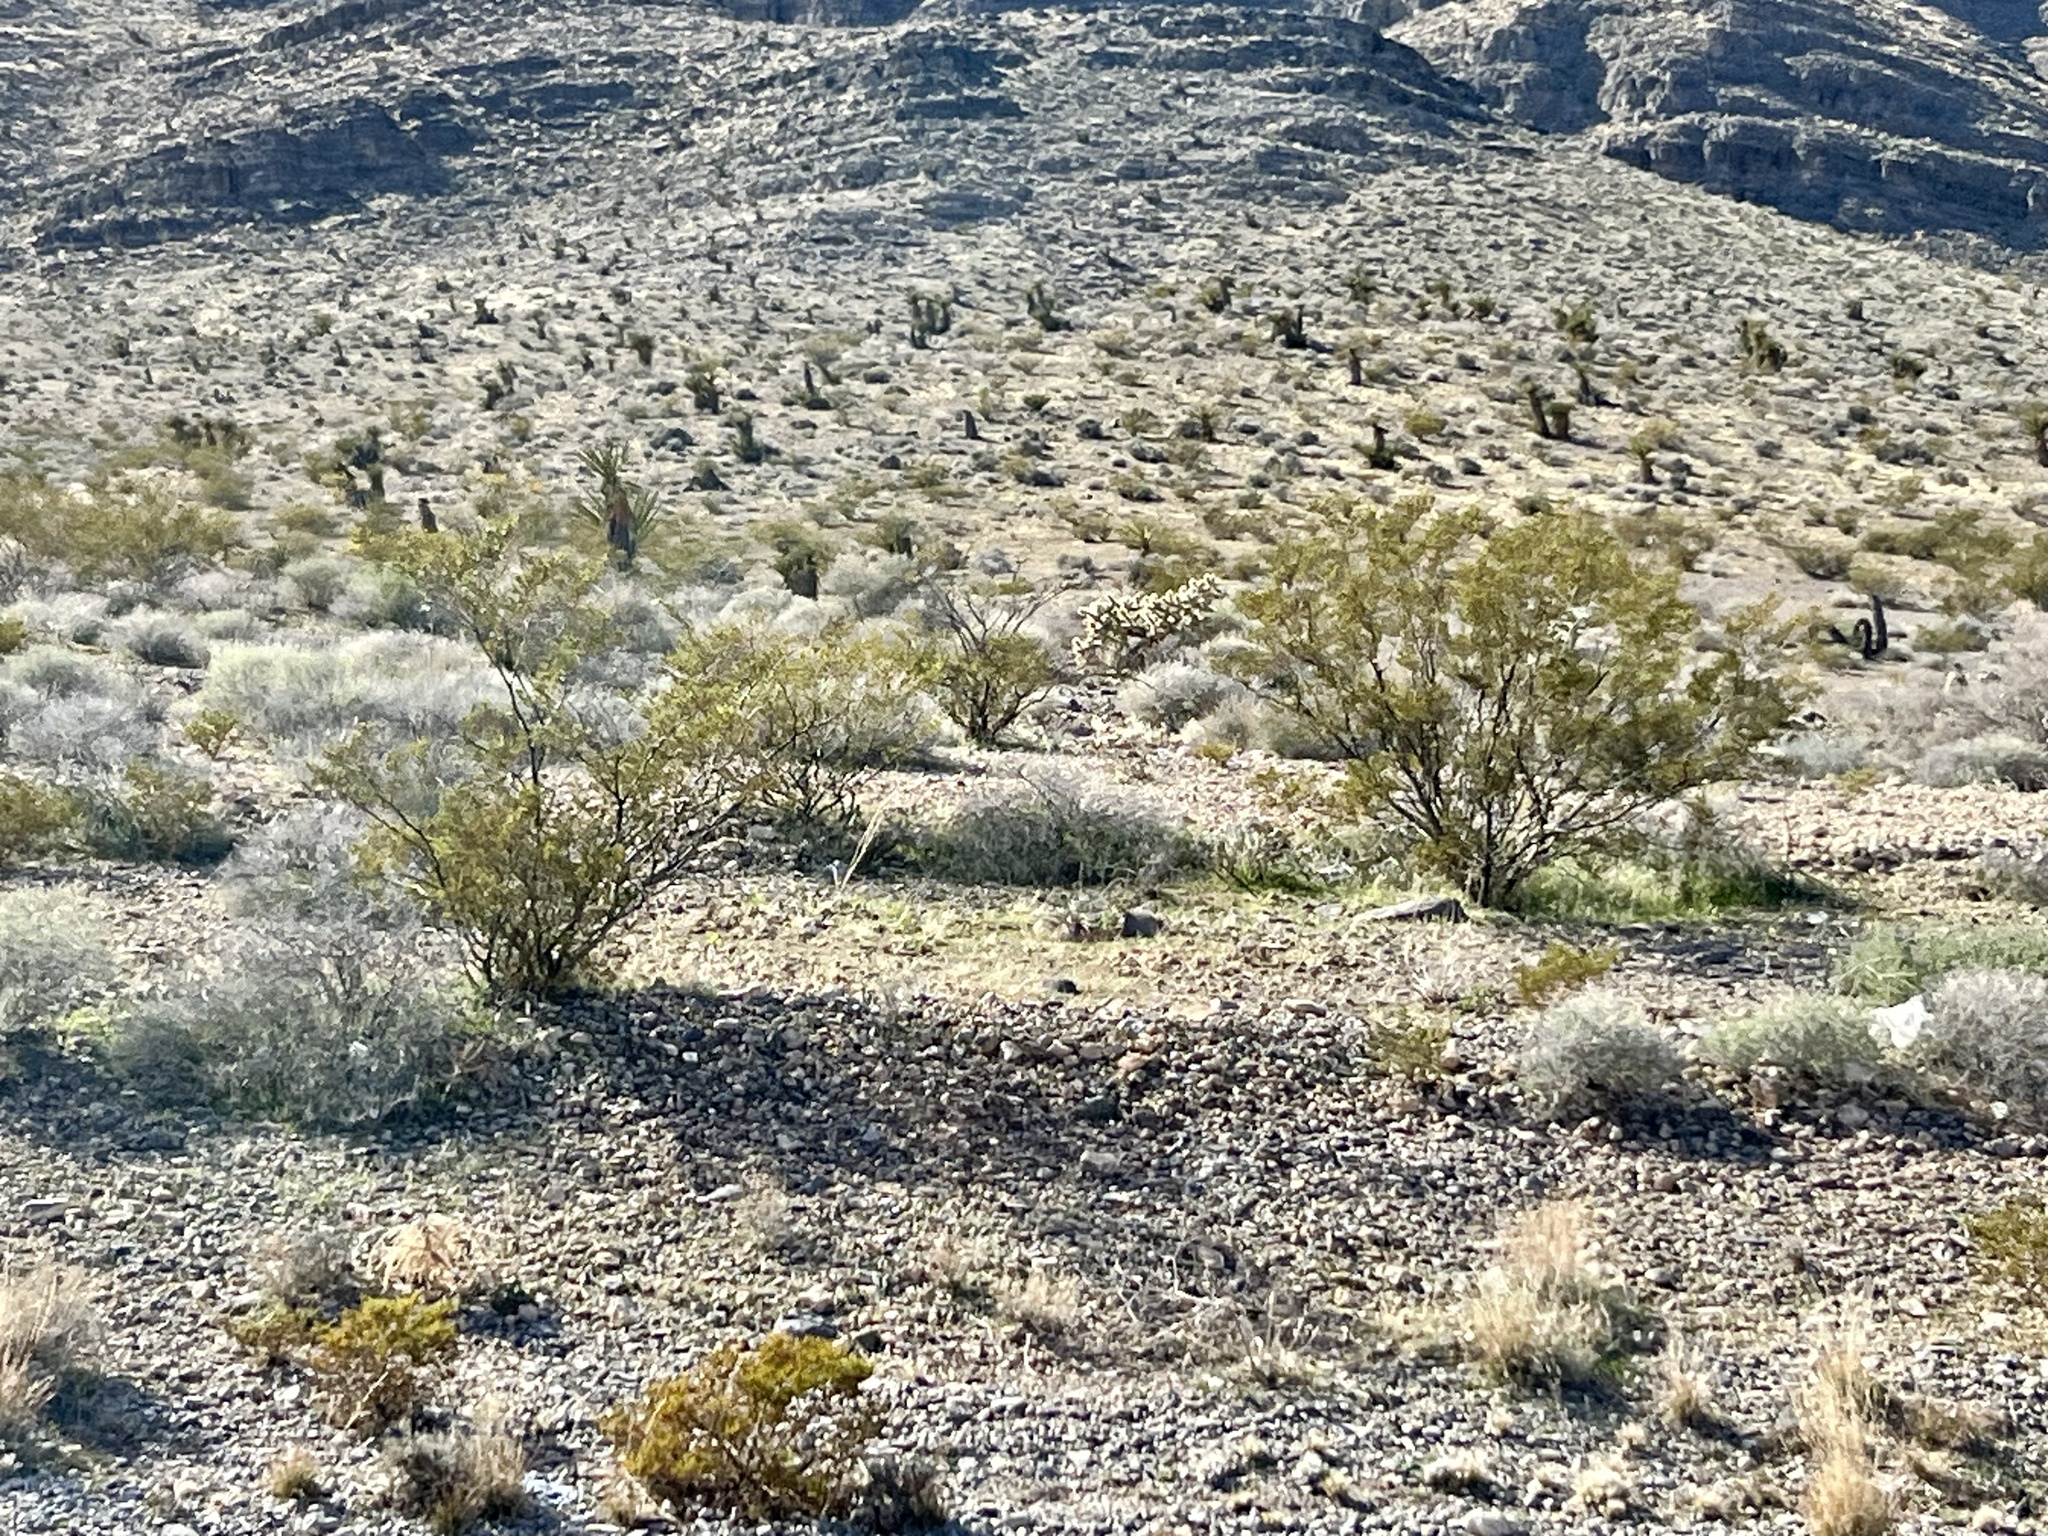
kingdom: Plantae
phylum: Tracheophyta
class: Magnoliopsida
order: Zygophyllales
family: Zygophyllaceae
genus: Larrea
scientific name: Larrea tridentata
